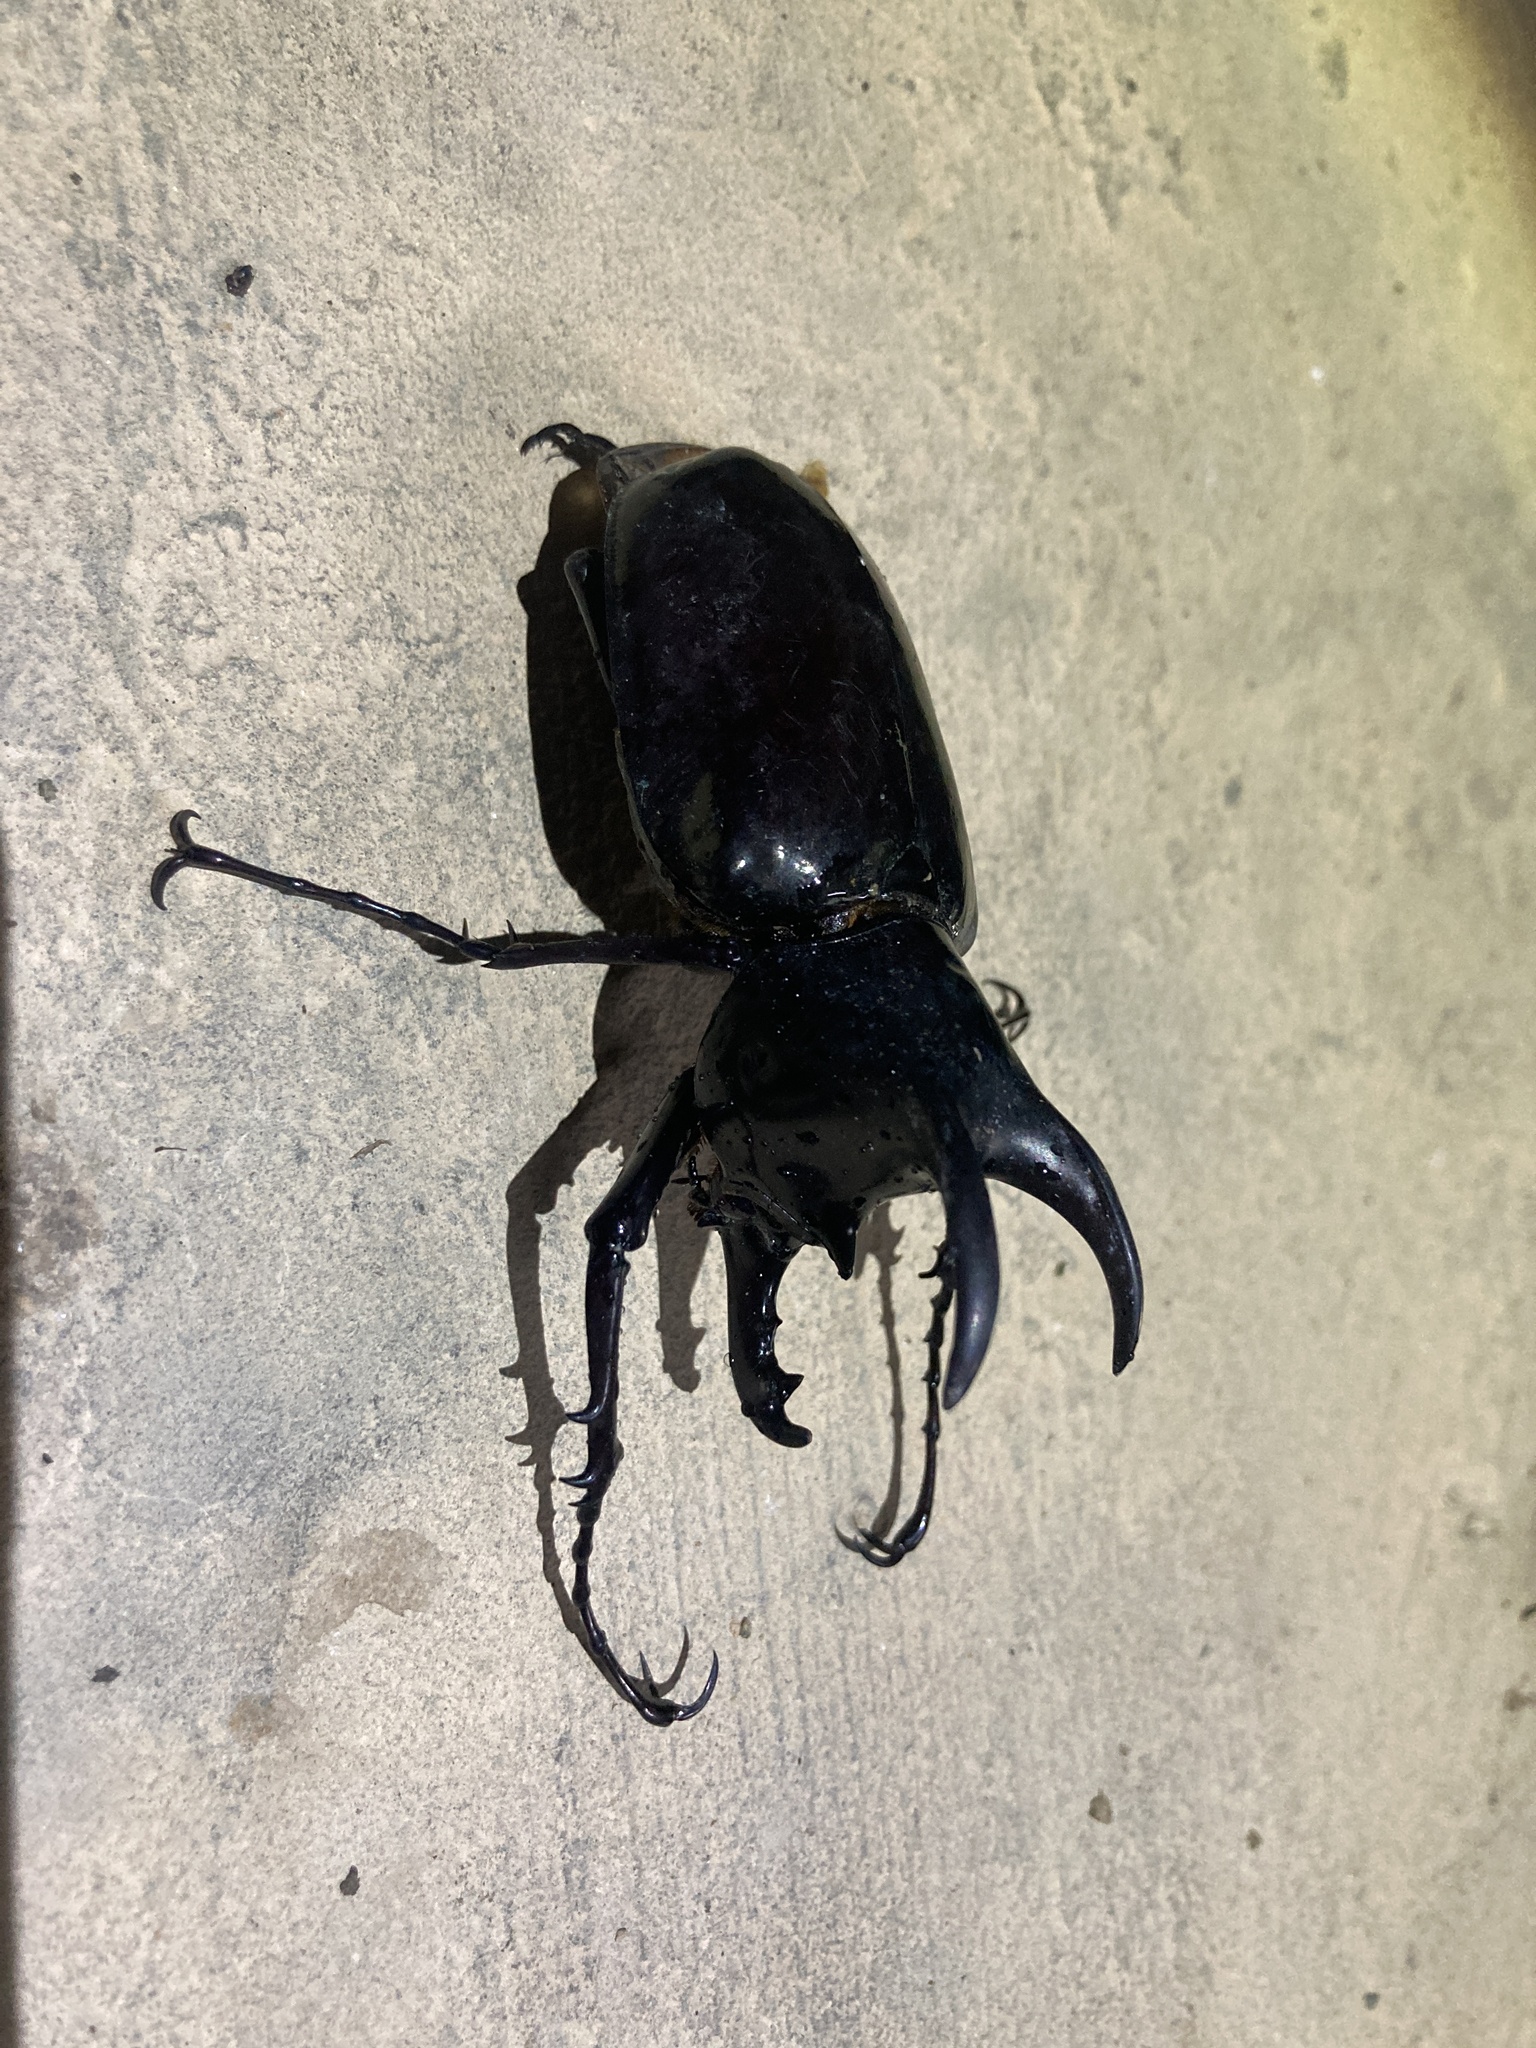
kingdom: Animalia
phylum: Arthropoda
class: Insecta
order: Coleoptera
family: Scarabaeidae
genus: Chalcosoma
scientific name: Chalcosoma moellenkampi
